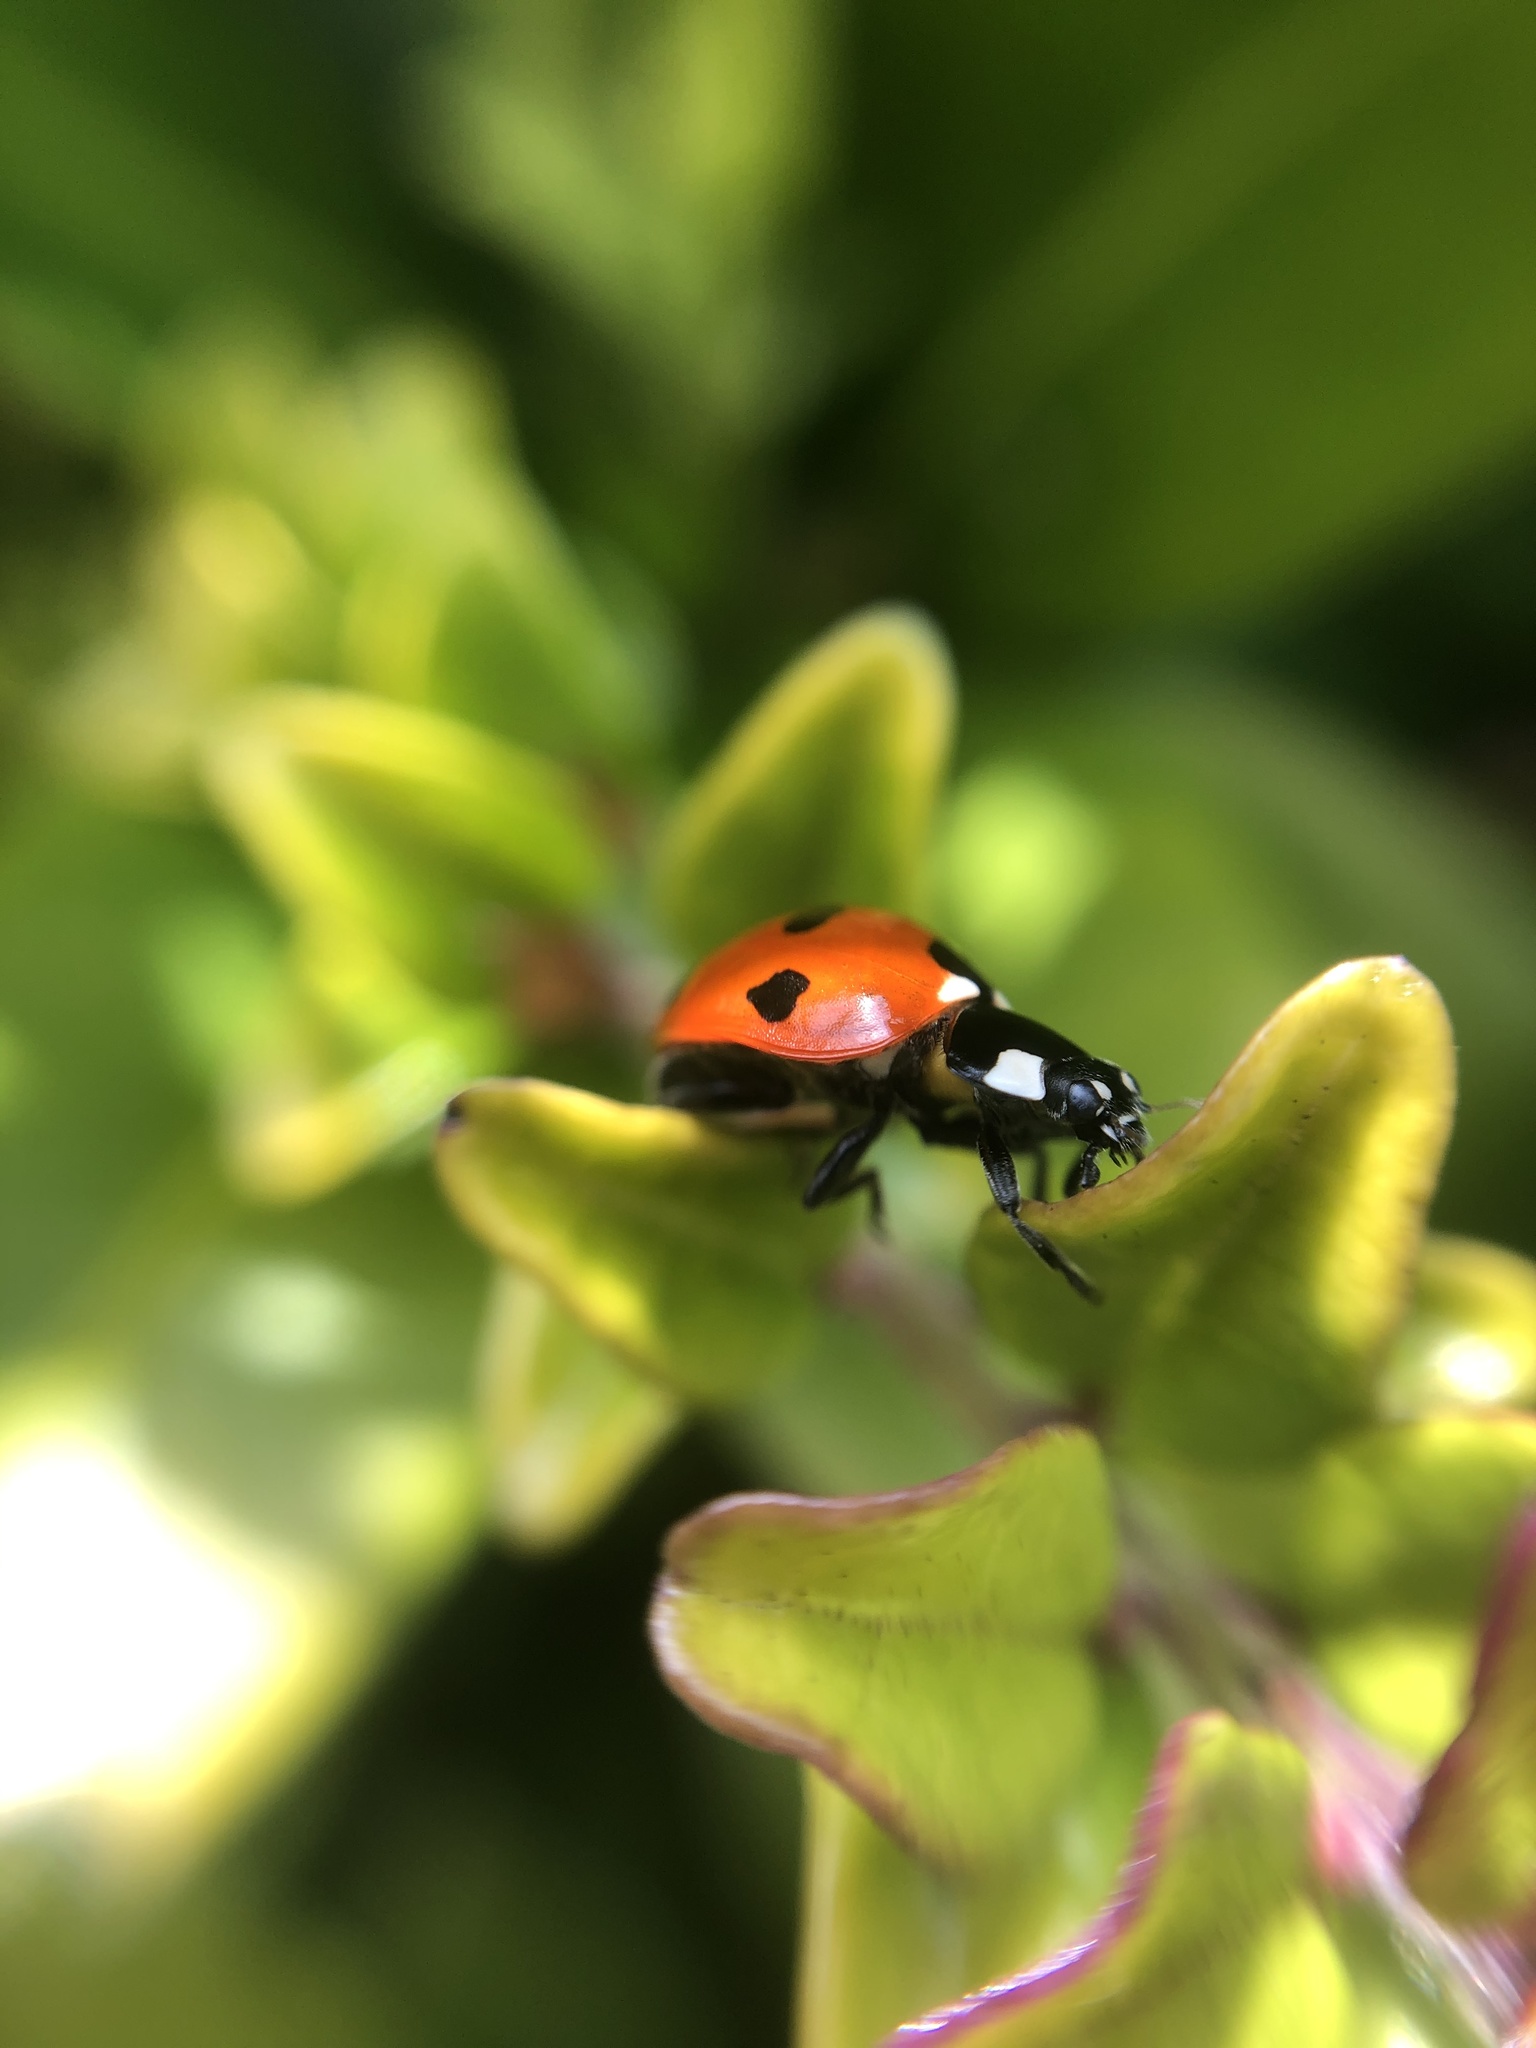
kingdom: Animalia
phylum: Arthropoda
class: Insecta
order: Coleoptera
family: Coccinellidae
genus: Coccinella
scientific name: Coccinella septempunctata
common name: Sevenspotted lady beetle
